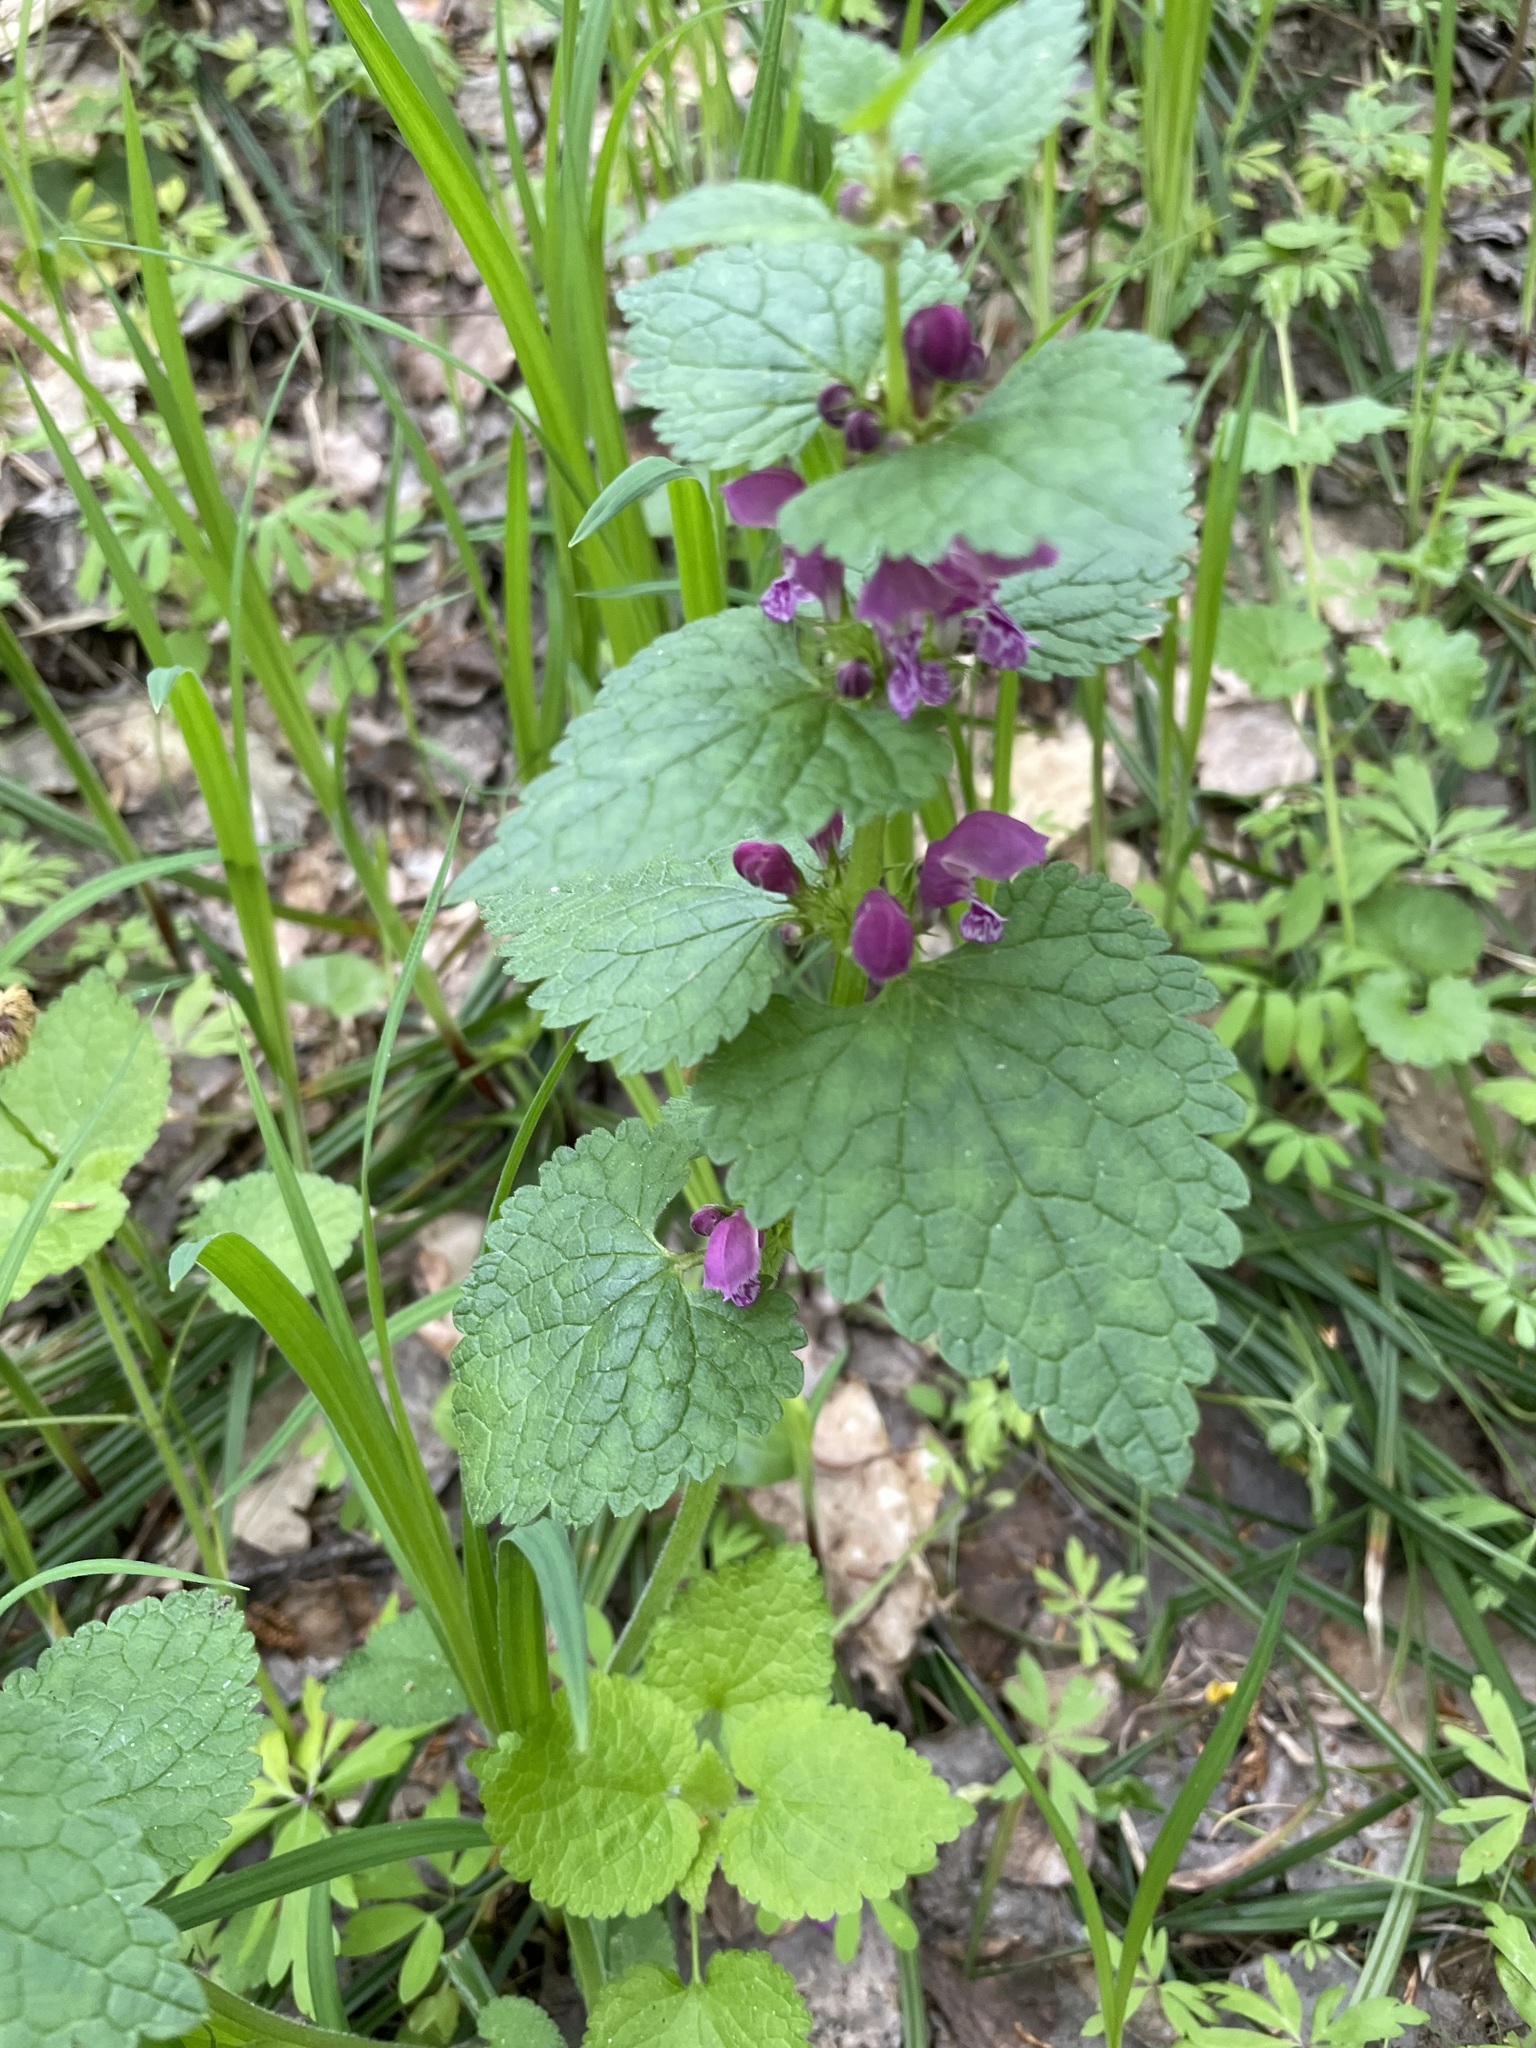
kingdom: Plantae
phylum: Tracheophyta
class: Magnoliopsida
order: Lamiales
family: Lamiaceae
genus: Lamium
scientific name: Lamium maculatum
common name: Spotted dead-nettle
